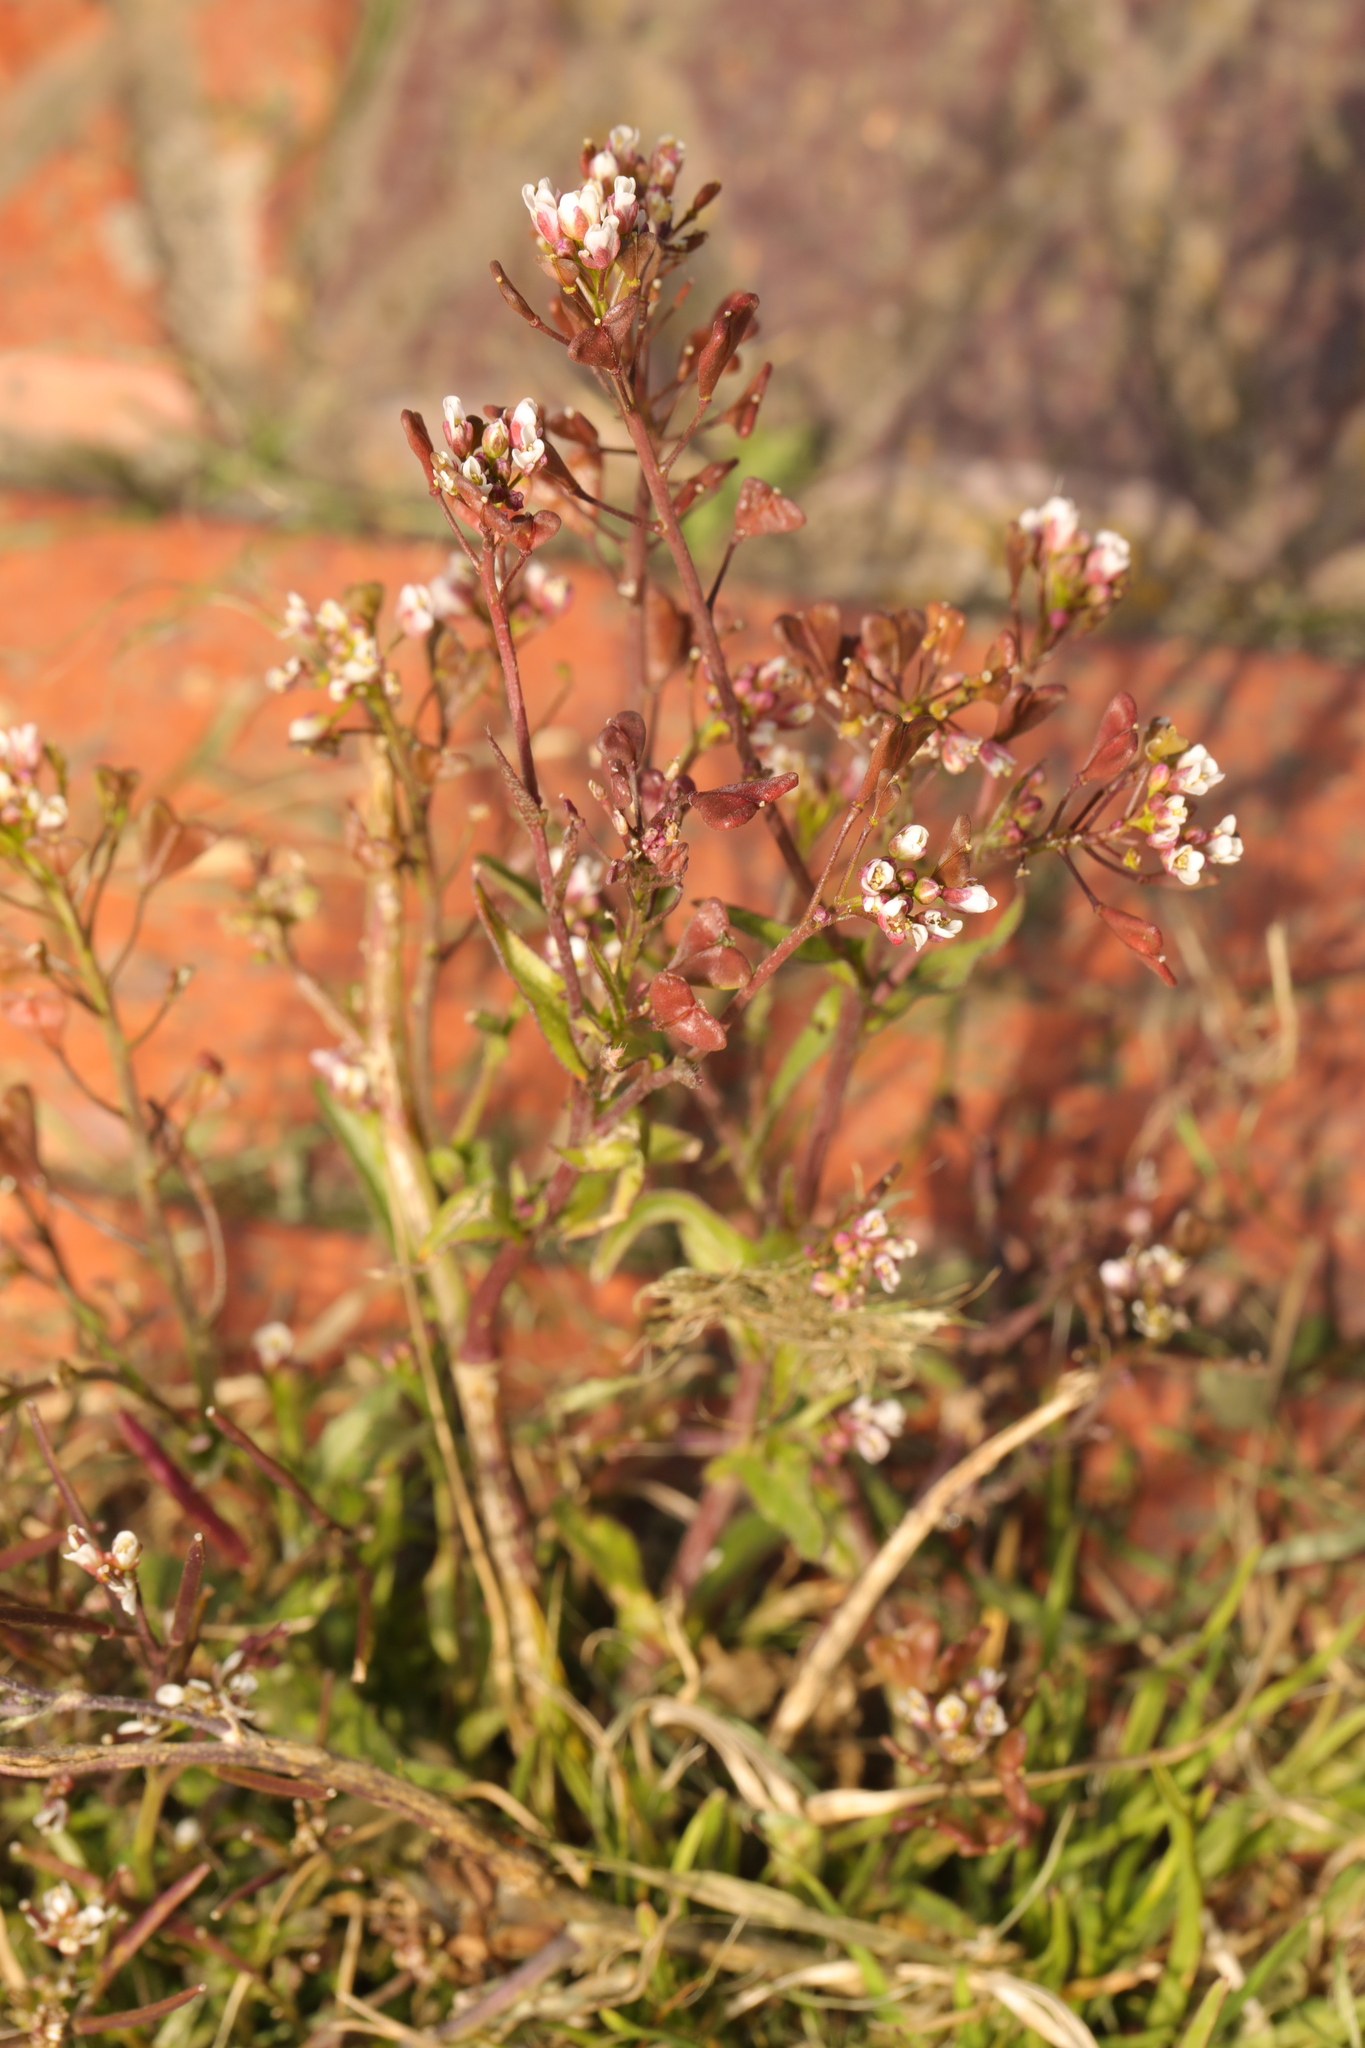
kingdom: Plantae
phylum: Tracheophyta
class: Magnoliopsida
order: Brassicales
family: Brassicaceae
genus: Capsella
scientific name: Capsella bursa-pastoris
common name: Shepherd's purse
